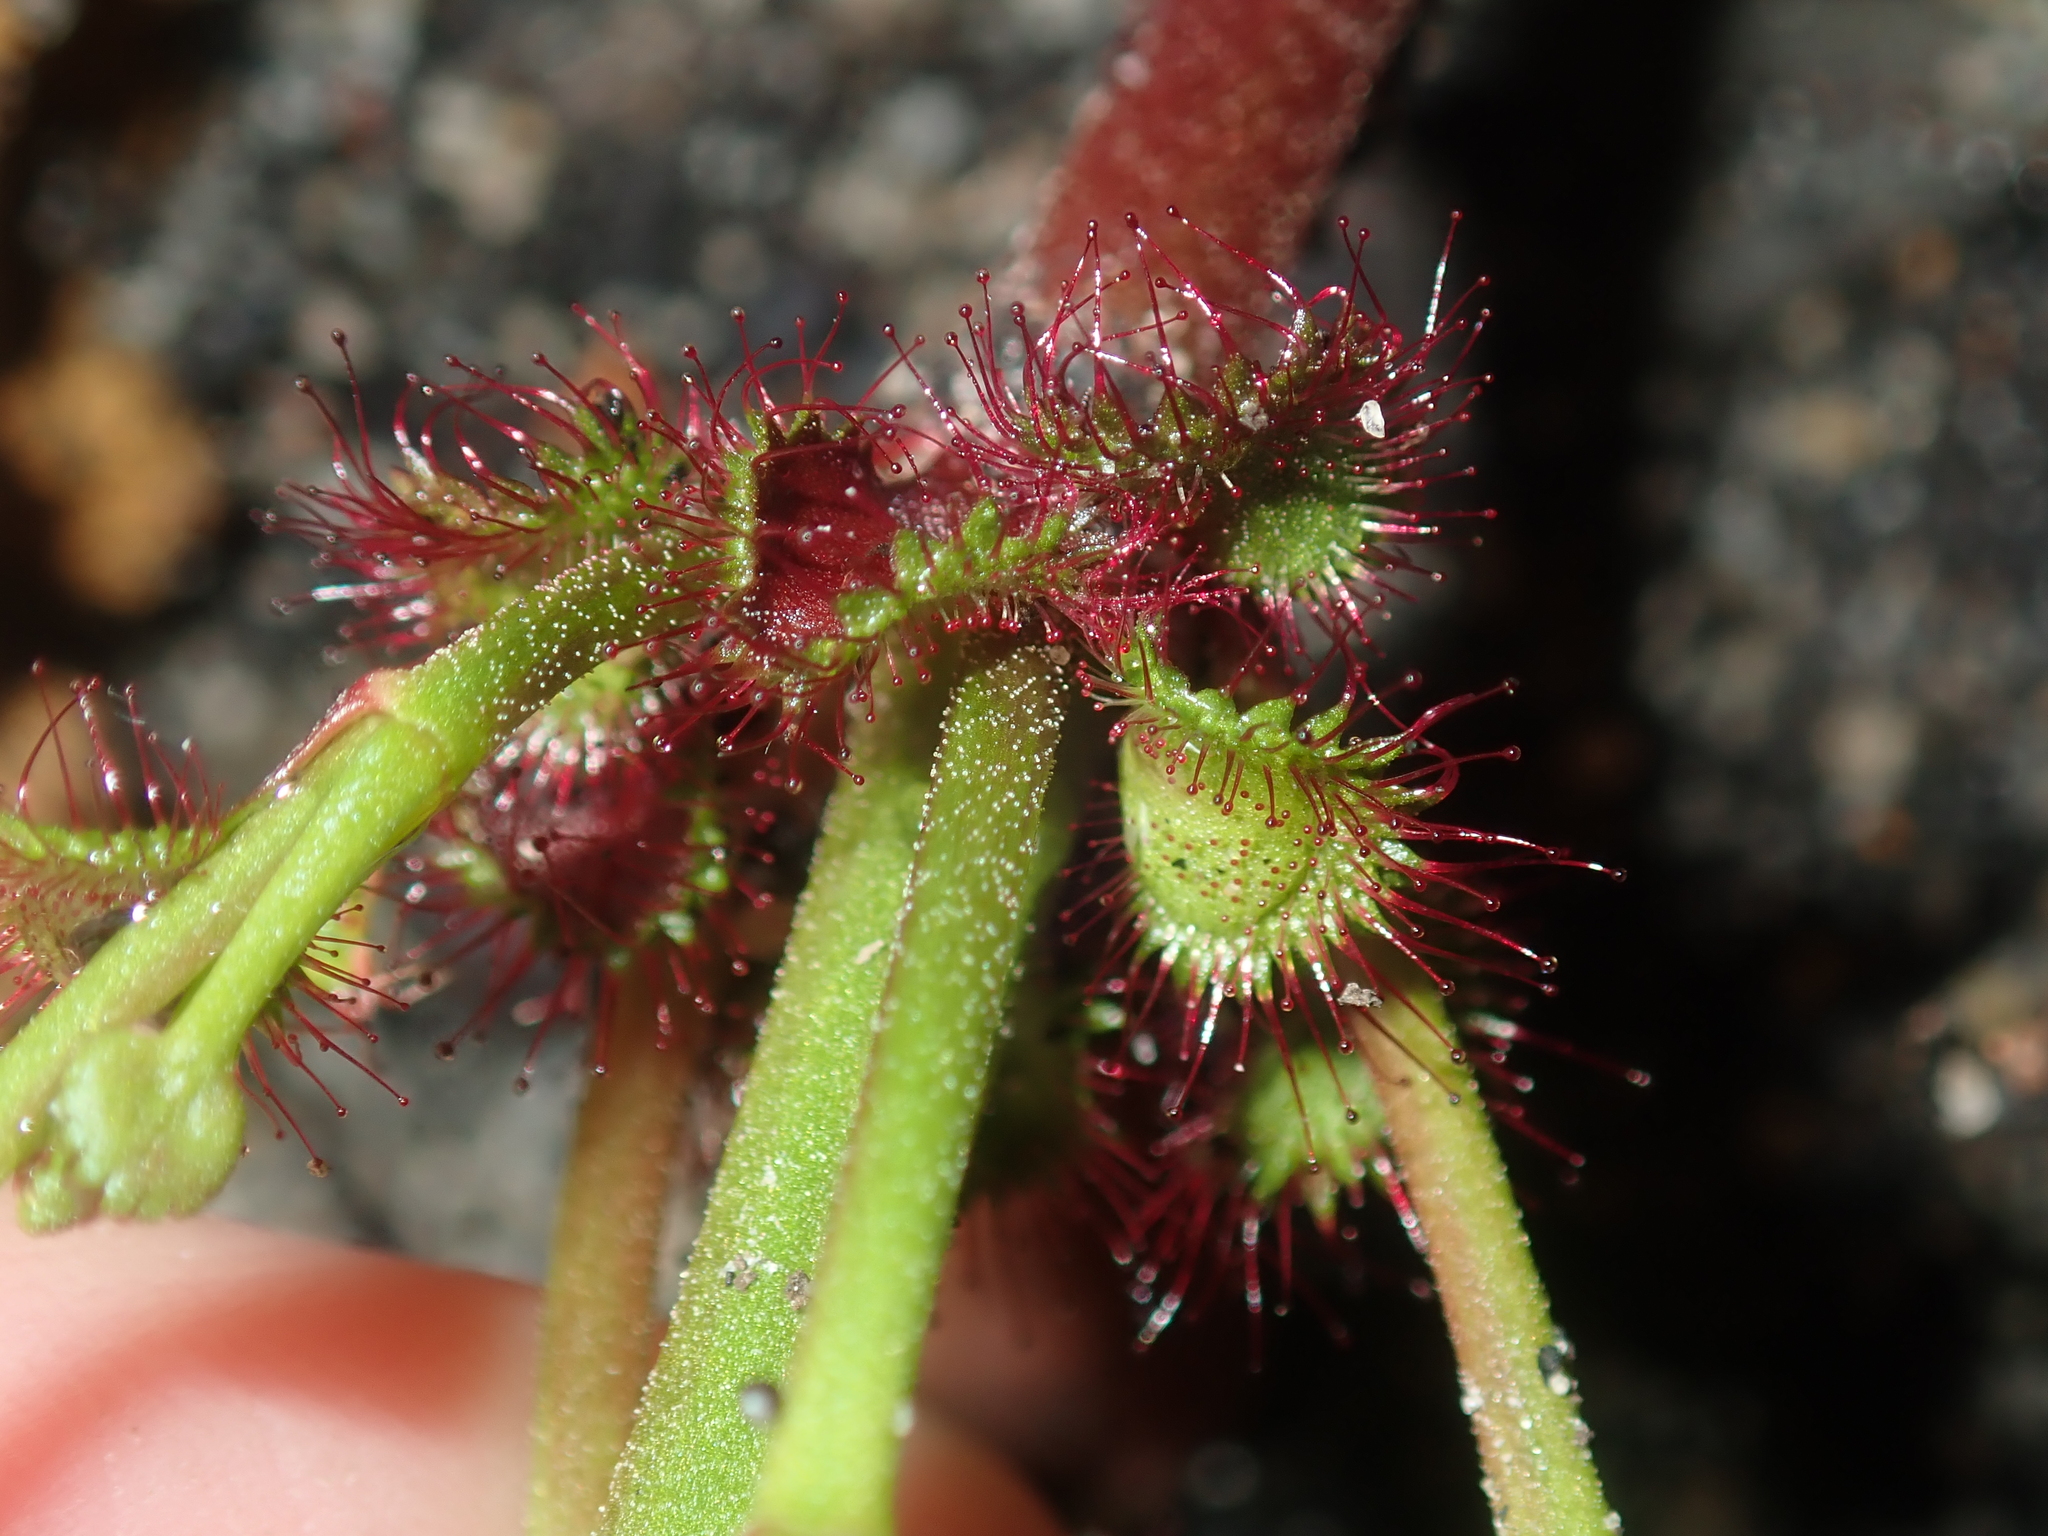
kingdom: Plantae
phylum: Tracheophyta
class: Magnoliopsida
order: Caryophyllales
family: Droseraceae
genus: Drosera
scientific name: Drosera stolonifera
